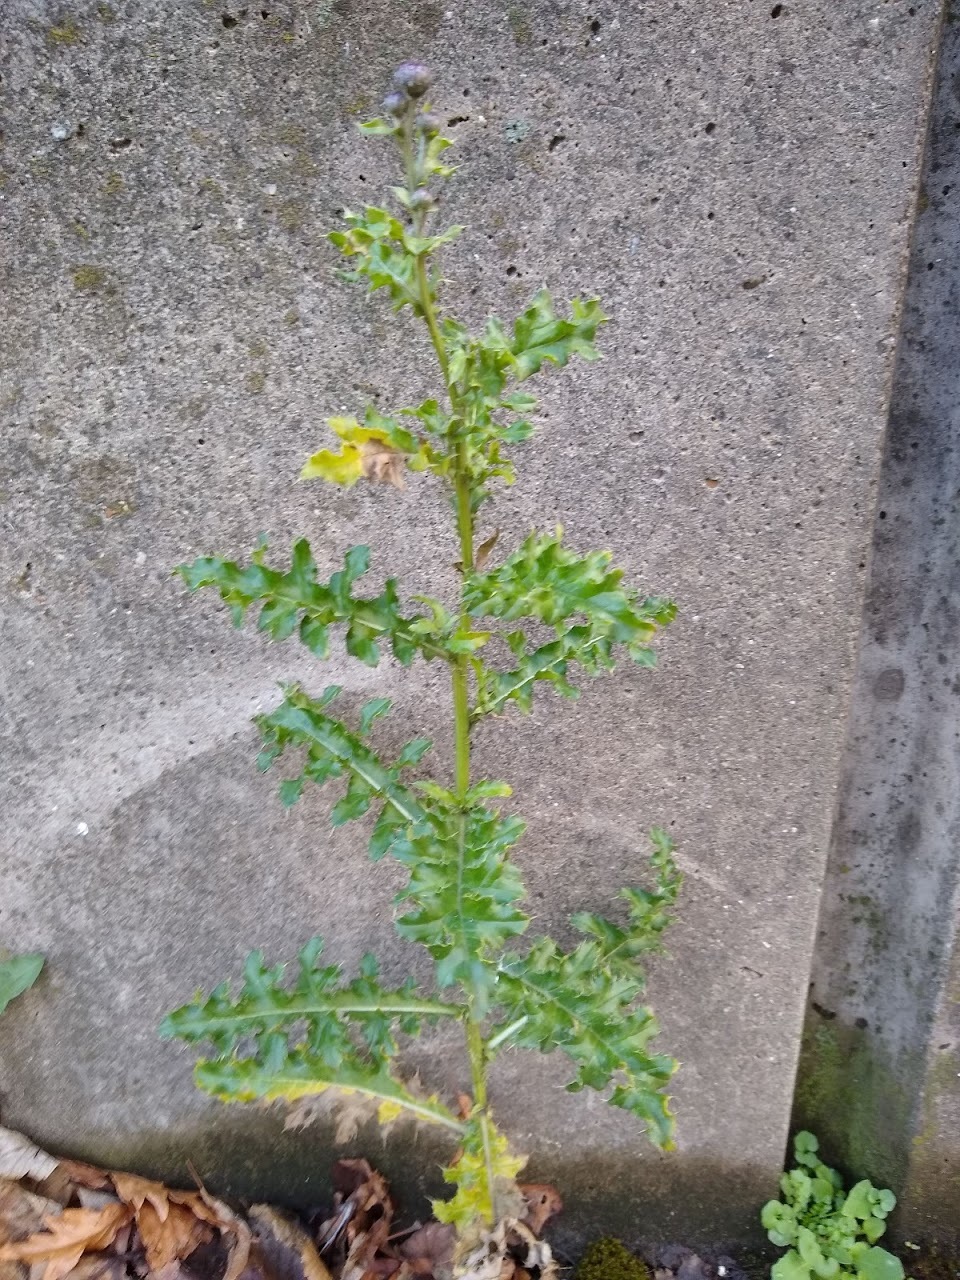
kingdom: Plantae
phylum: Tracheophyta
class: Magnoliopsida
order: Asterales
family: Asteraceae
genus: Cirsium
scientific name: Cirsium arvense
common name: Creeping thistle
